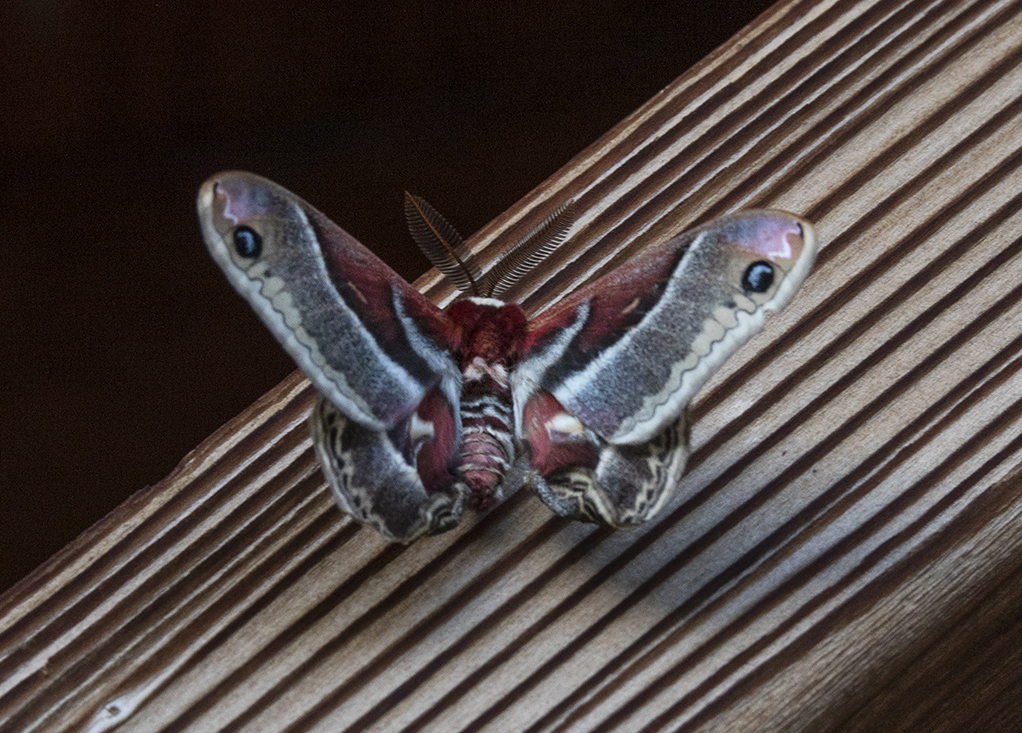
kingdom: Animalia
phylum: Arthropoda
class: Insecta
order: Lepidoptera
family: Saturniidae
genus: Hyalophora
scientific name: Hyalophora gloveri
